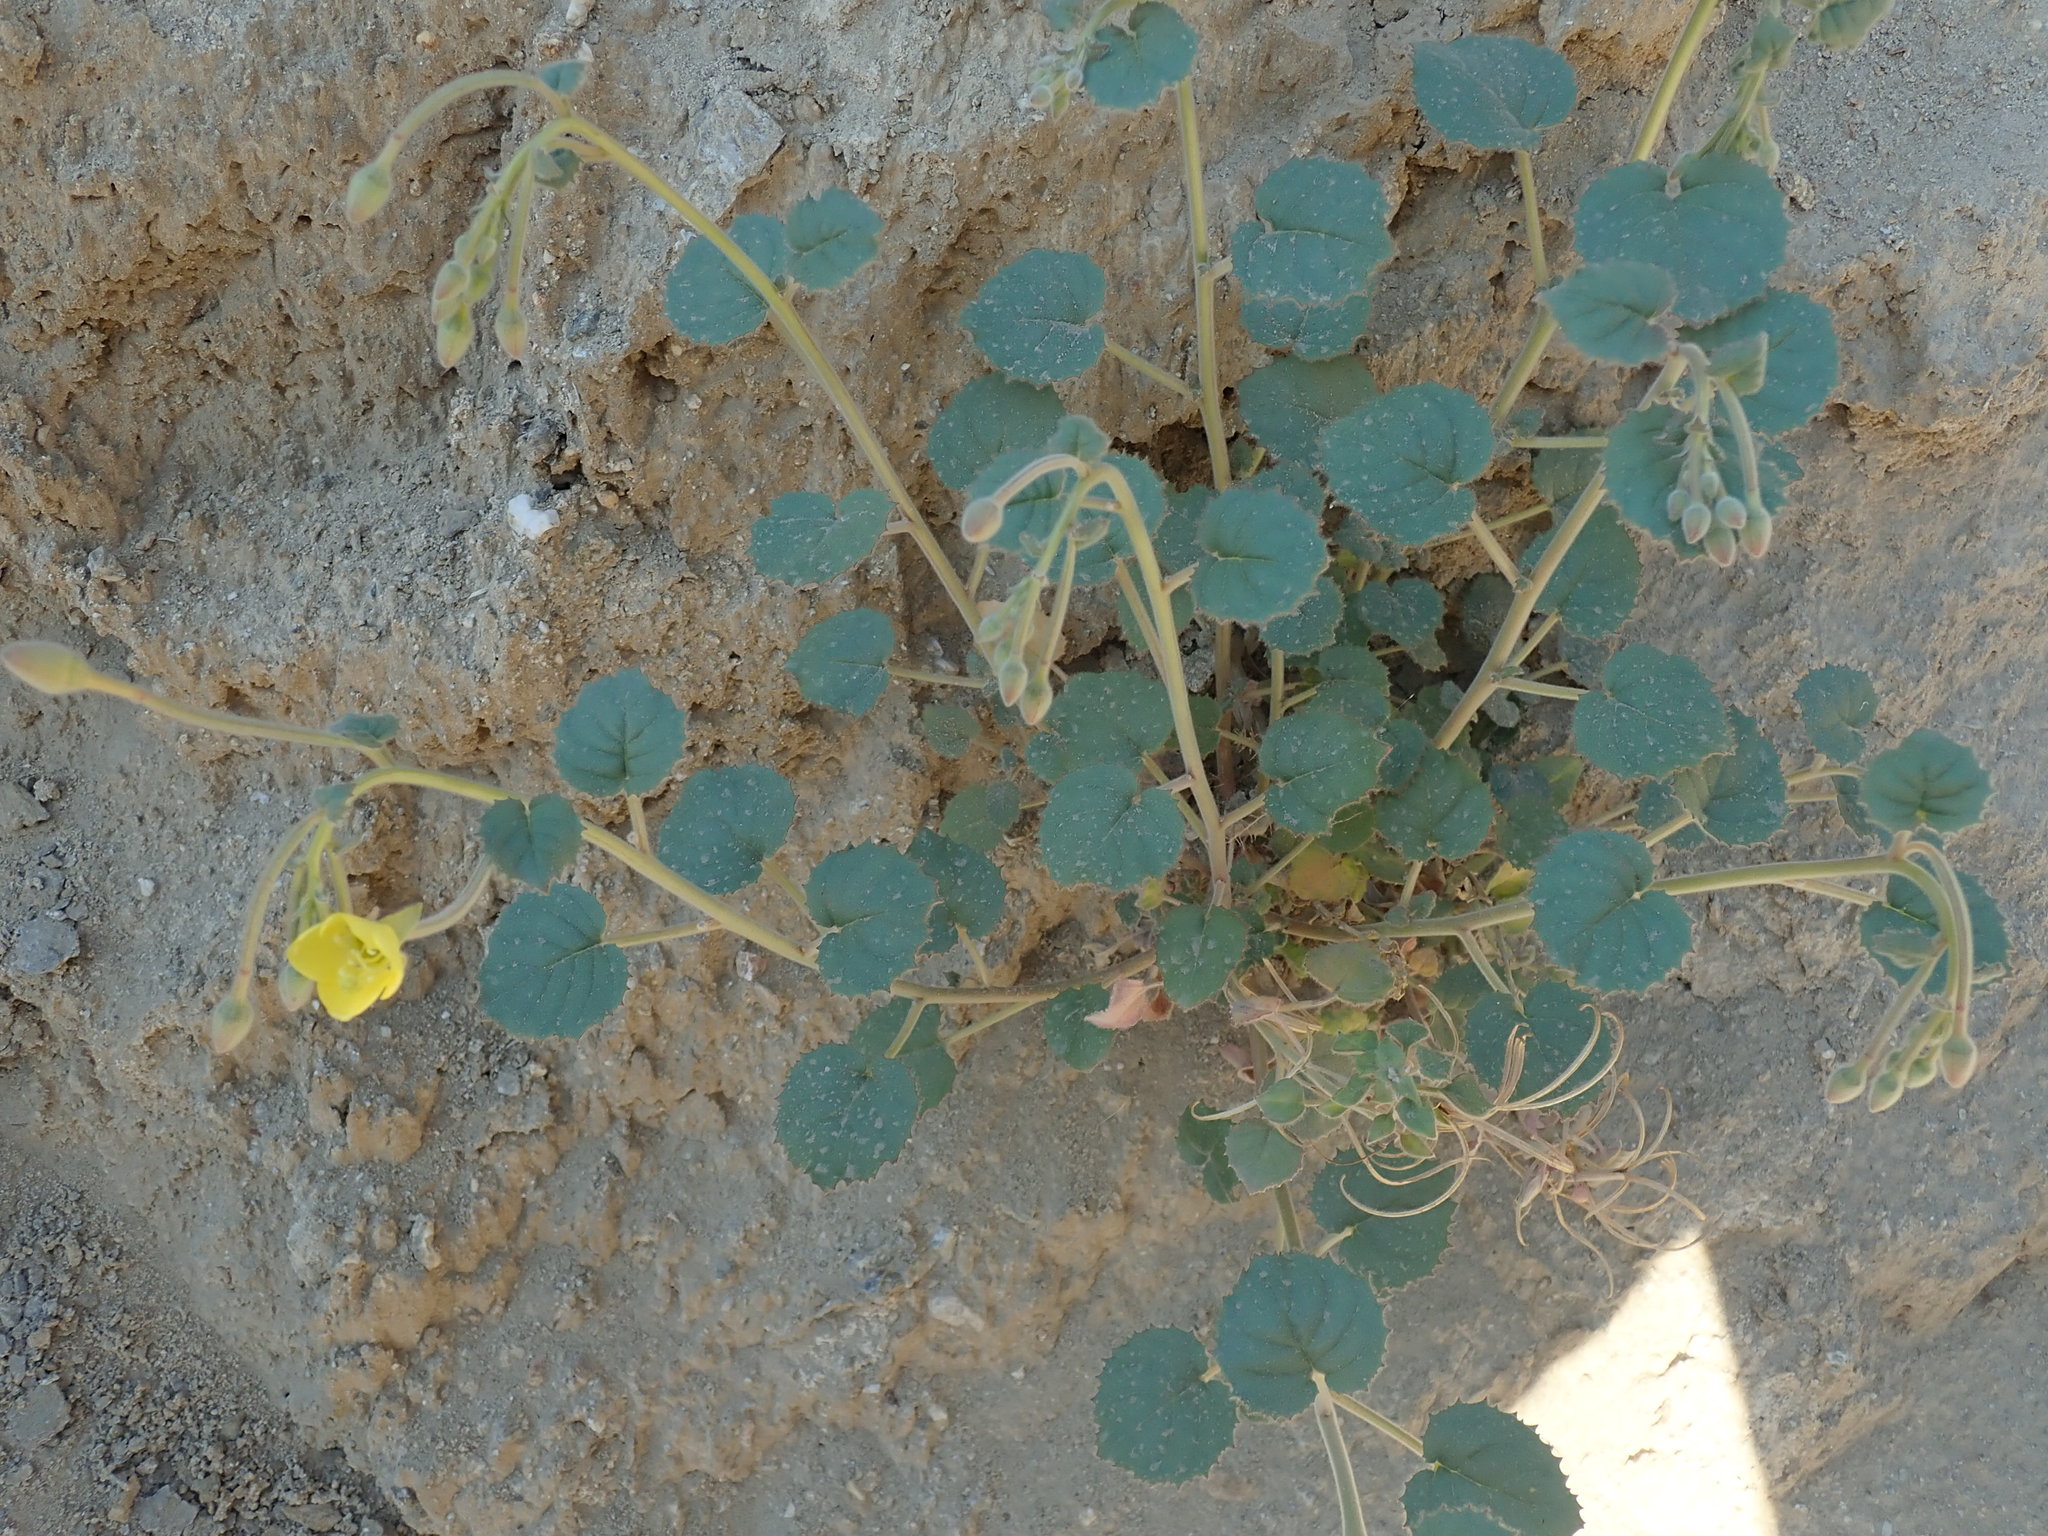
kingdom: Plantae
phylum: Tracheophyta
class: Magnoliopsida
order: Myrtales
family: Onagraceae
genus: Chylismia
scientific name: Chylismia cardiophylla
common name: Heartleaf suncup
